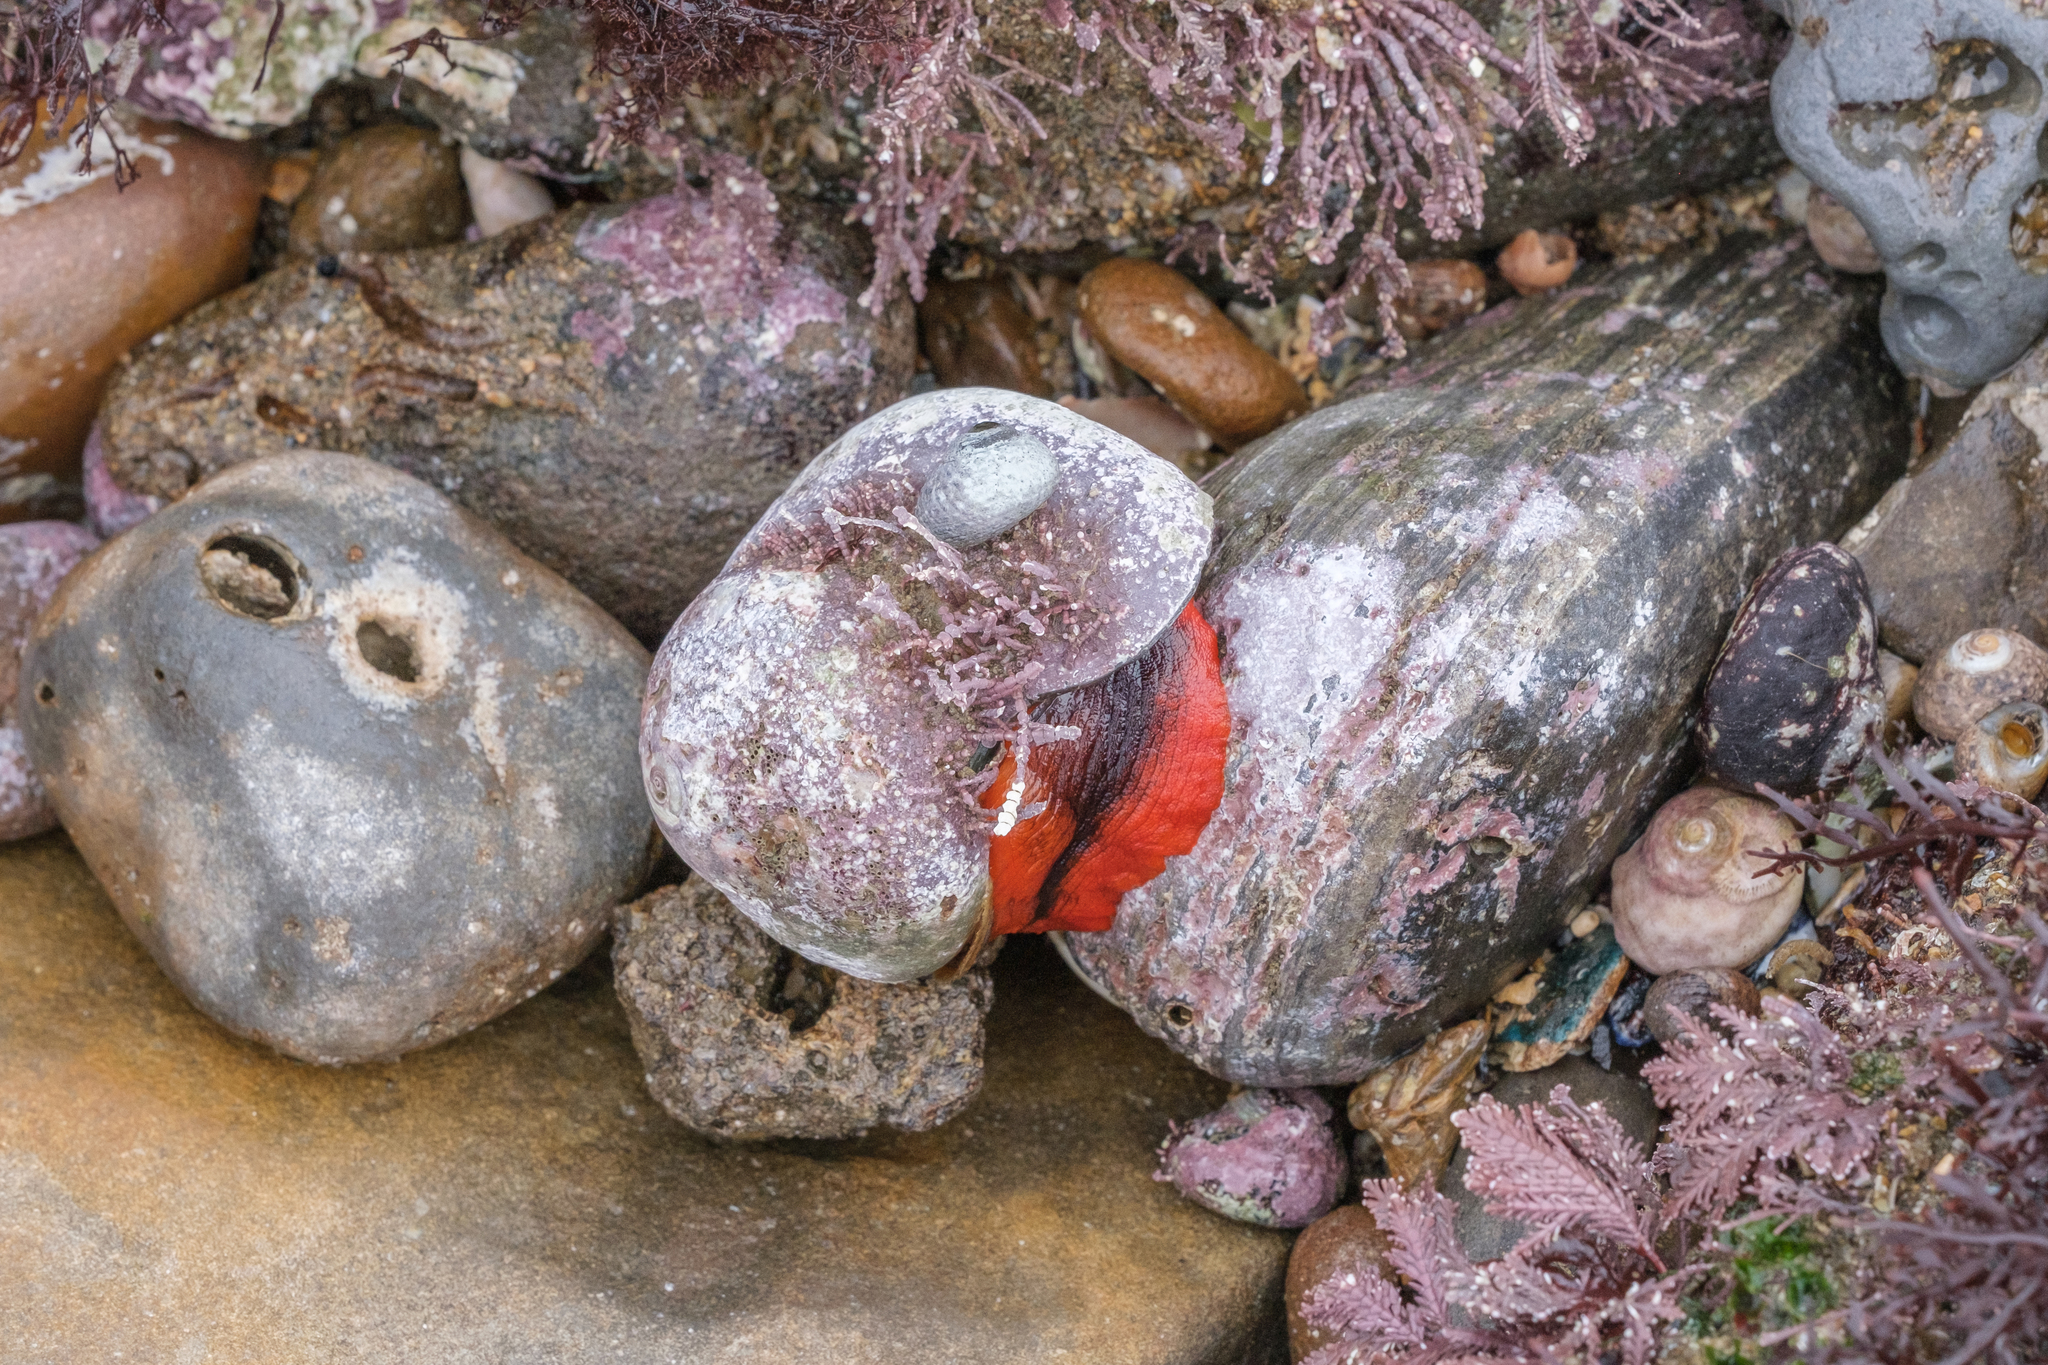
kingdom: Animalia
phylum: Mollusca
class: Gastropoda
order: Trochida
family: Tegulidae
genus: Norrisia
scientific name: Norrisia norrisii
